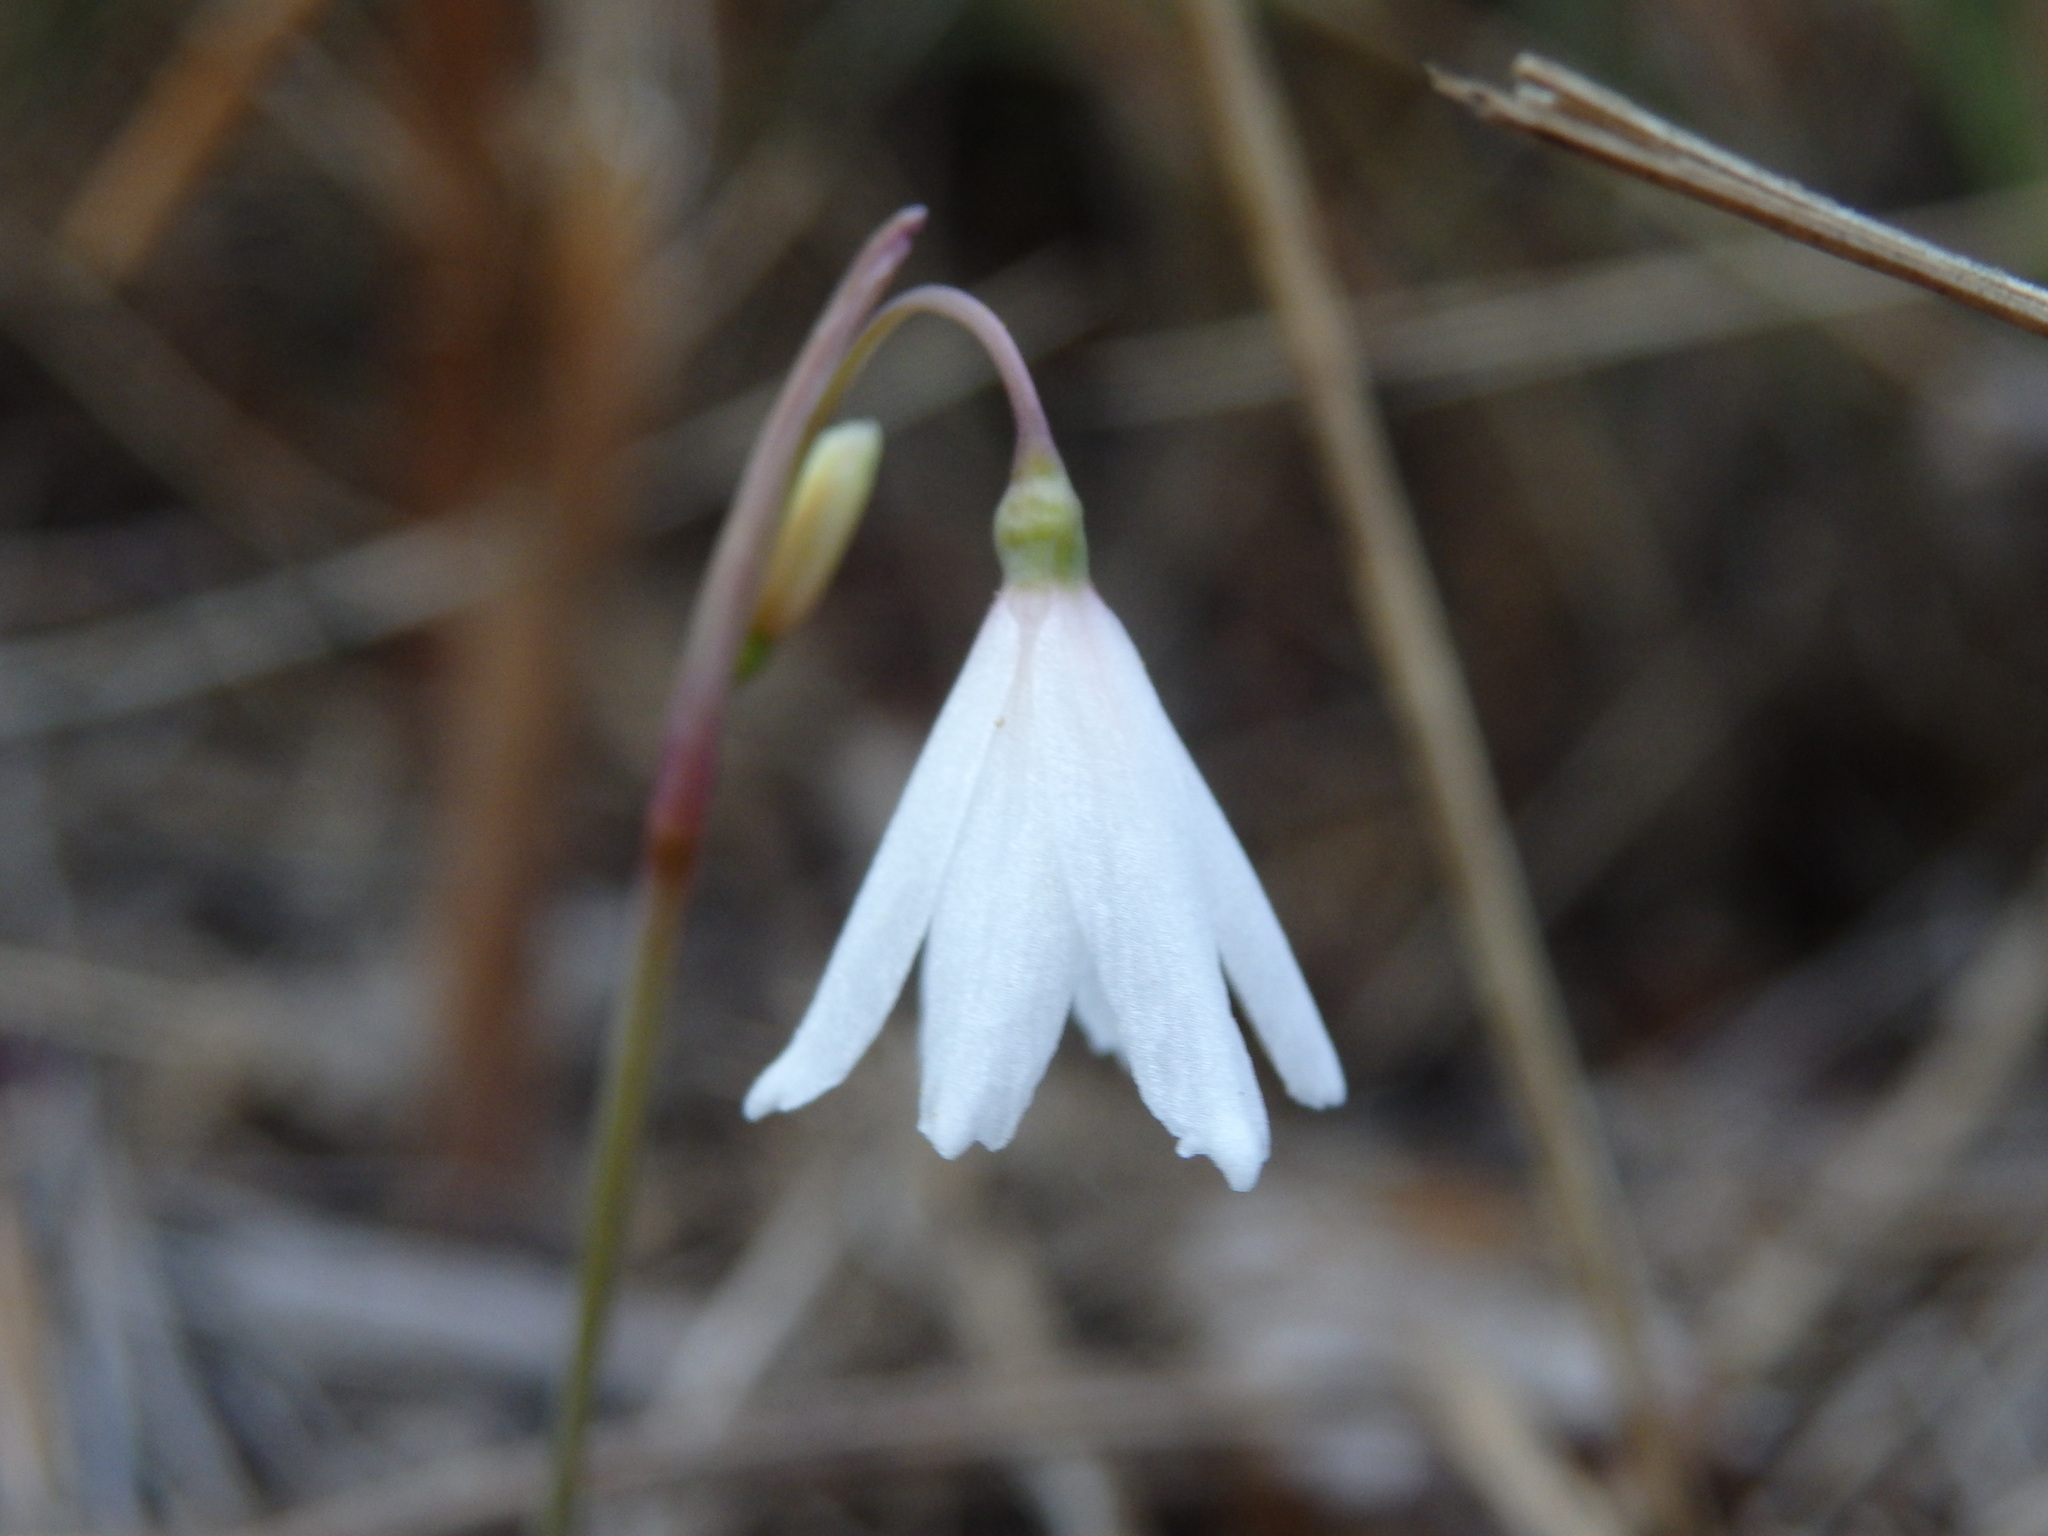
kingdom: Plantae
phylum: Tracheophyta
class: Liliopsida
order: Asparagales
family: Amaryllidaceae
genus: Acis
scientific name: Acis autumnalis
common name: Autumn snowflake
